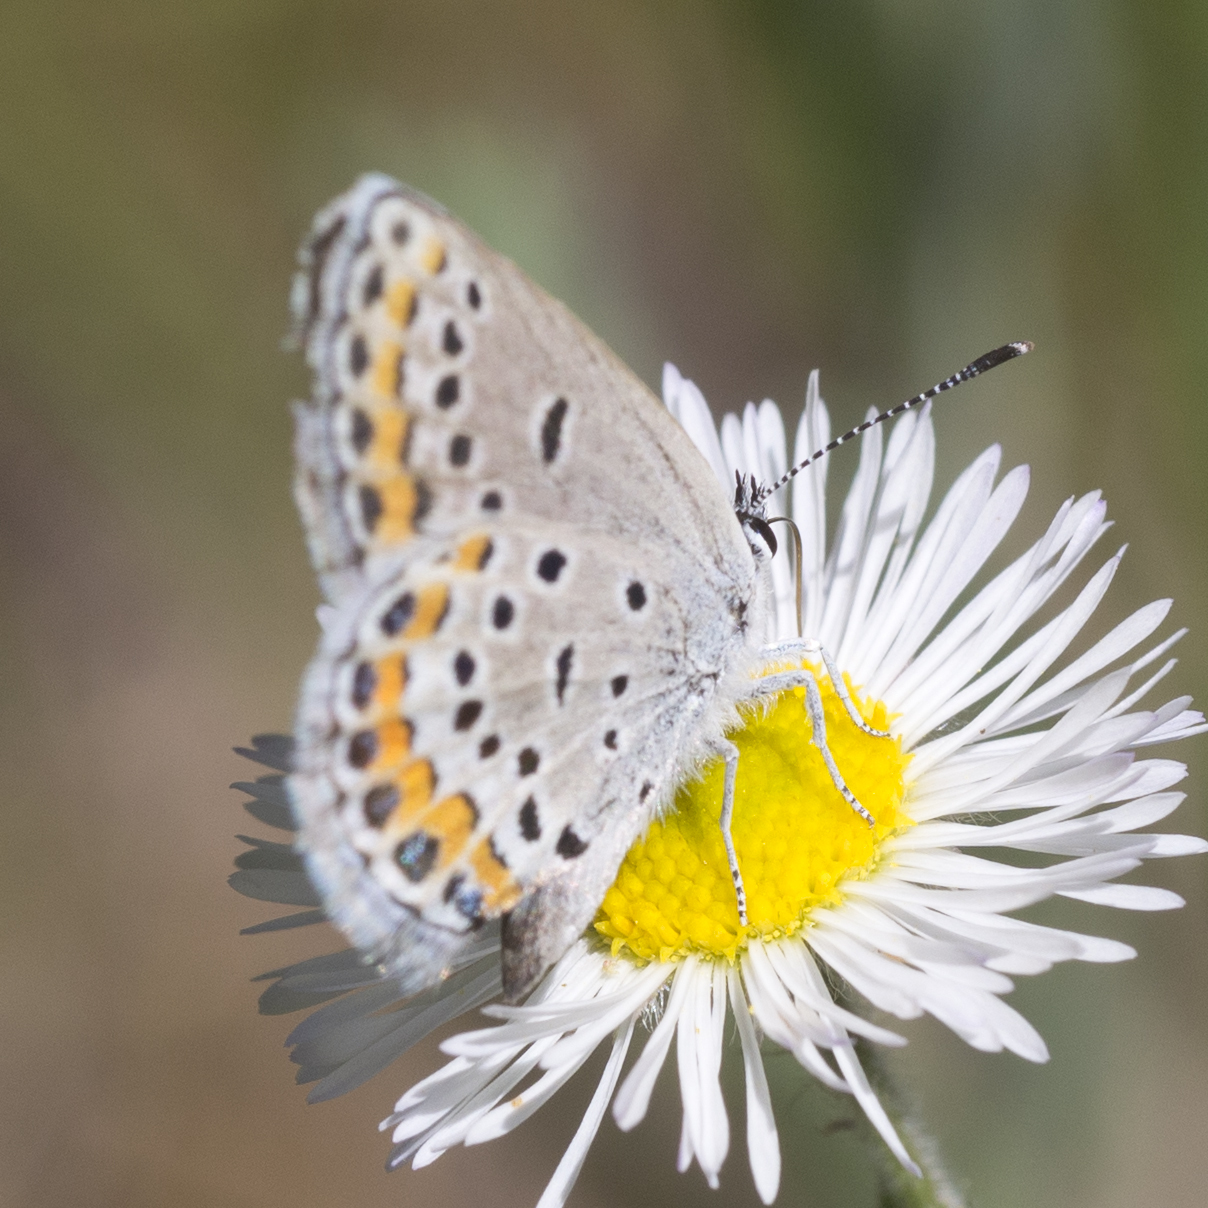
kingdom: Animalia
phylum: Arthropoda
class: Insecta
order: Lepidoptera
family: Lycaenidae
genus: Lycaeides
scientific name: Lycaeides melissa
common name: Melissa blue
